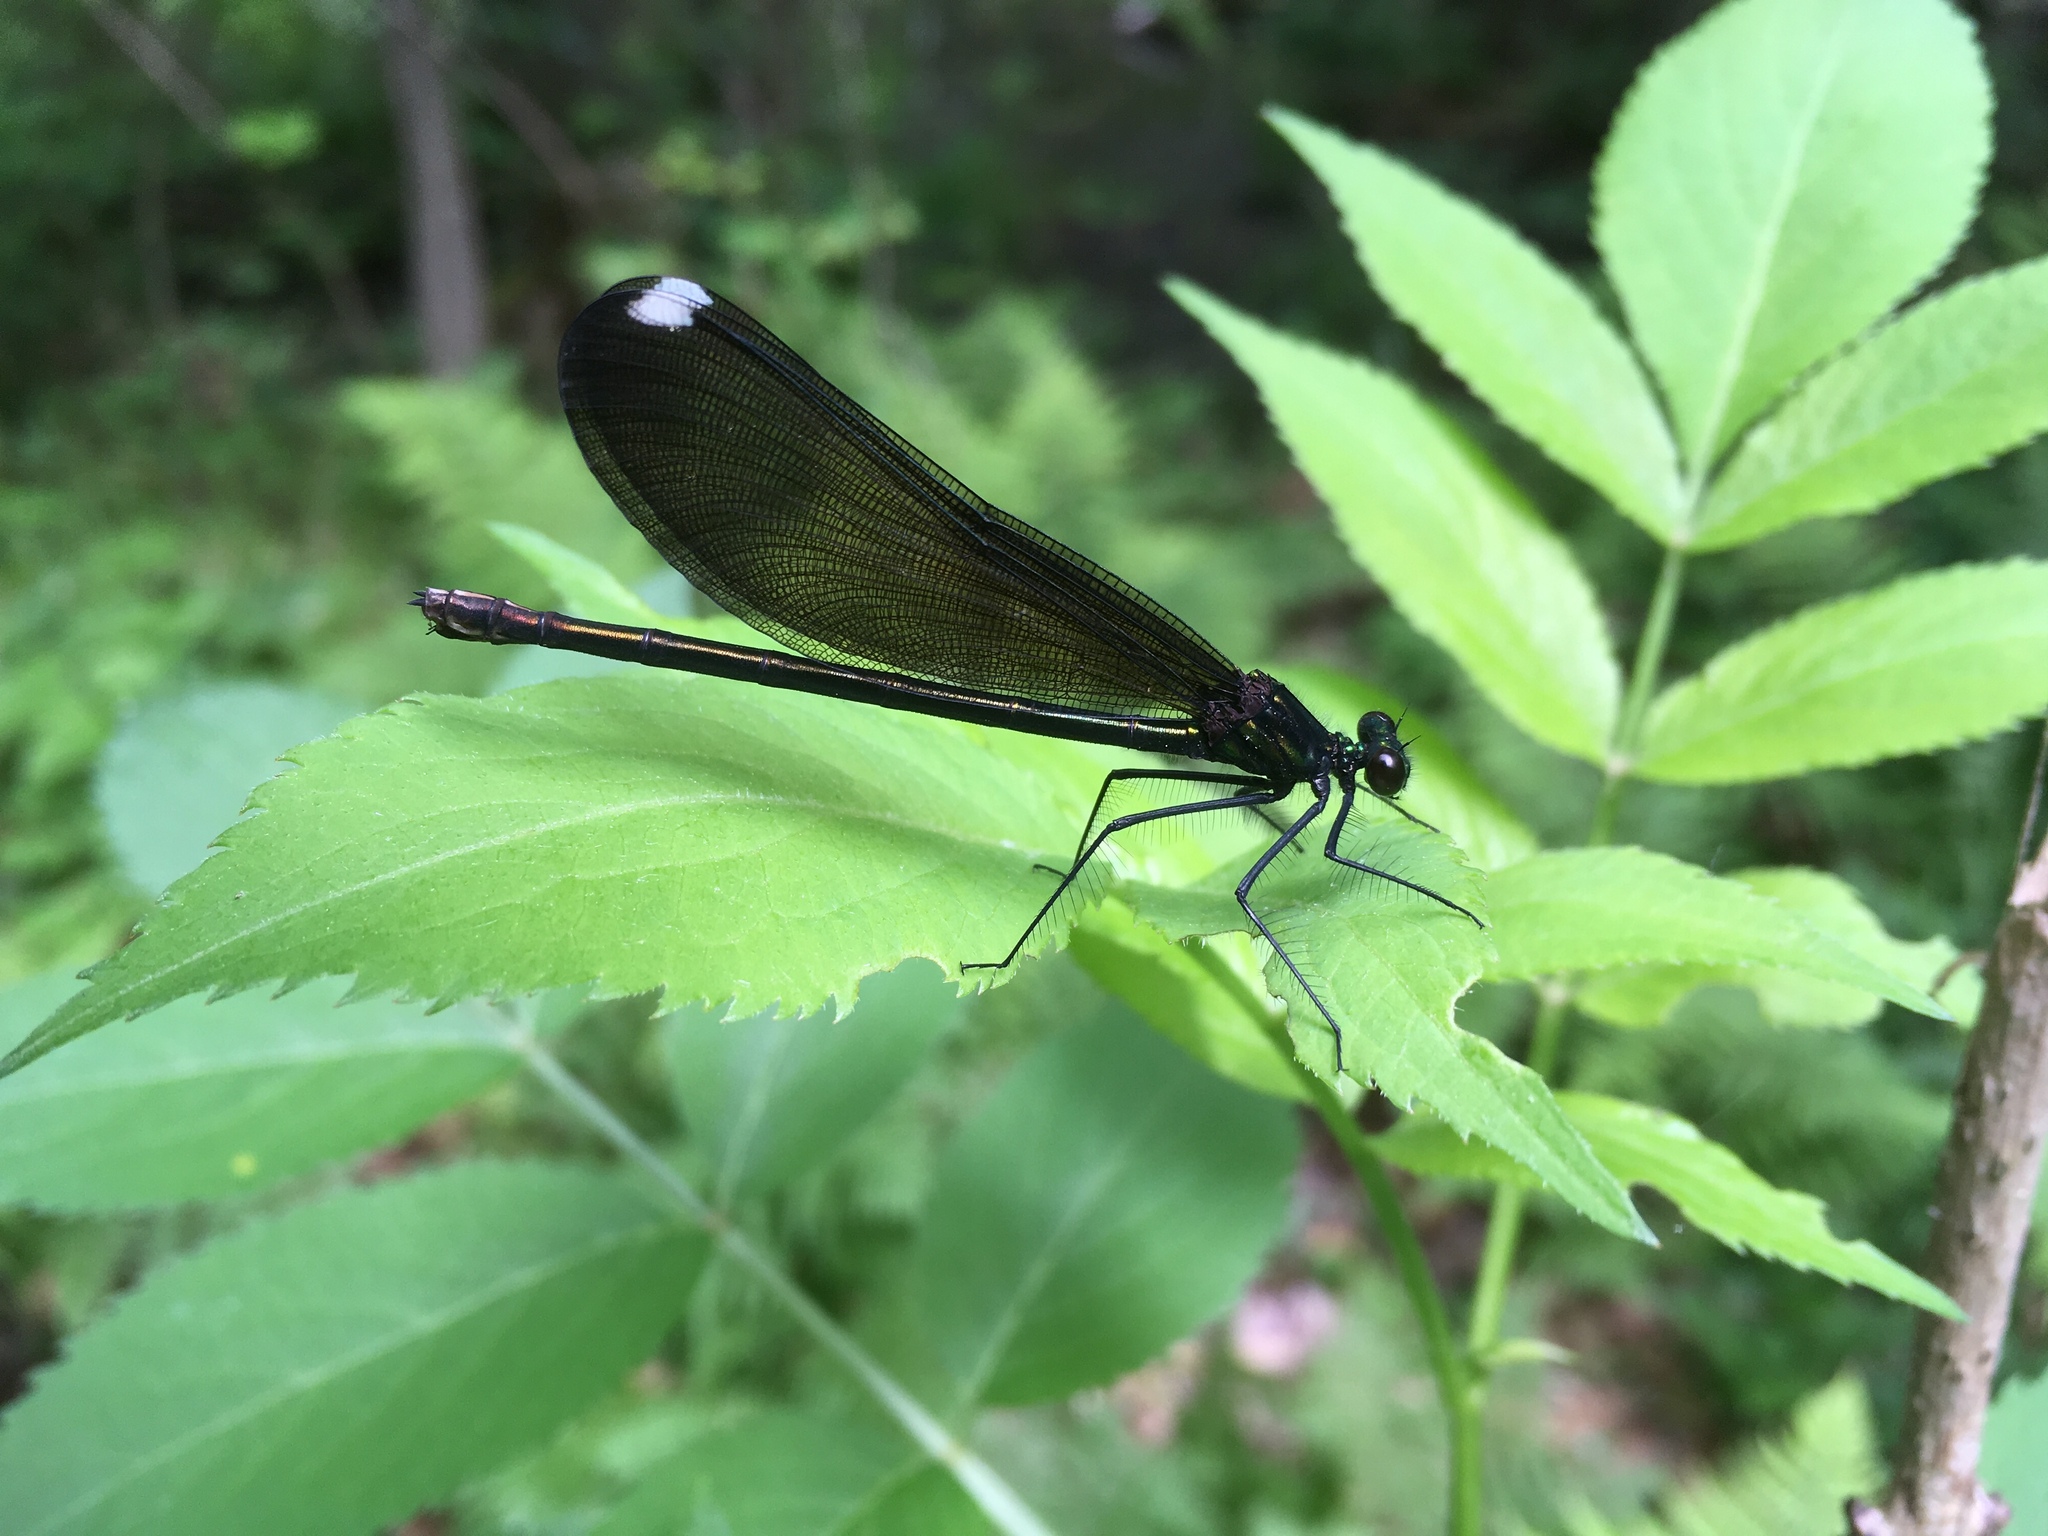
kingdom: Animalia
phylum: Arthropoda
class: Insecta
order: Odonata
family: Calopterygidae
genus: Calopteryx
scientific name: Calopteryx maculata
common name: Ebony jewelwing
